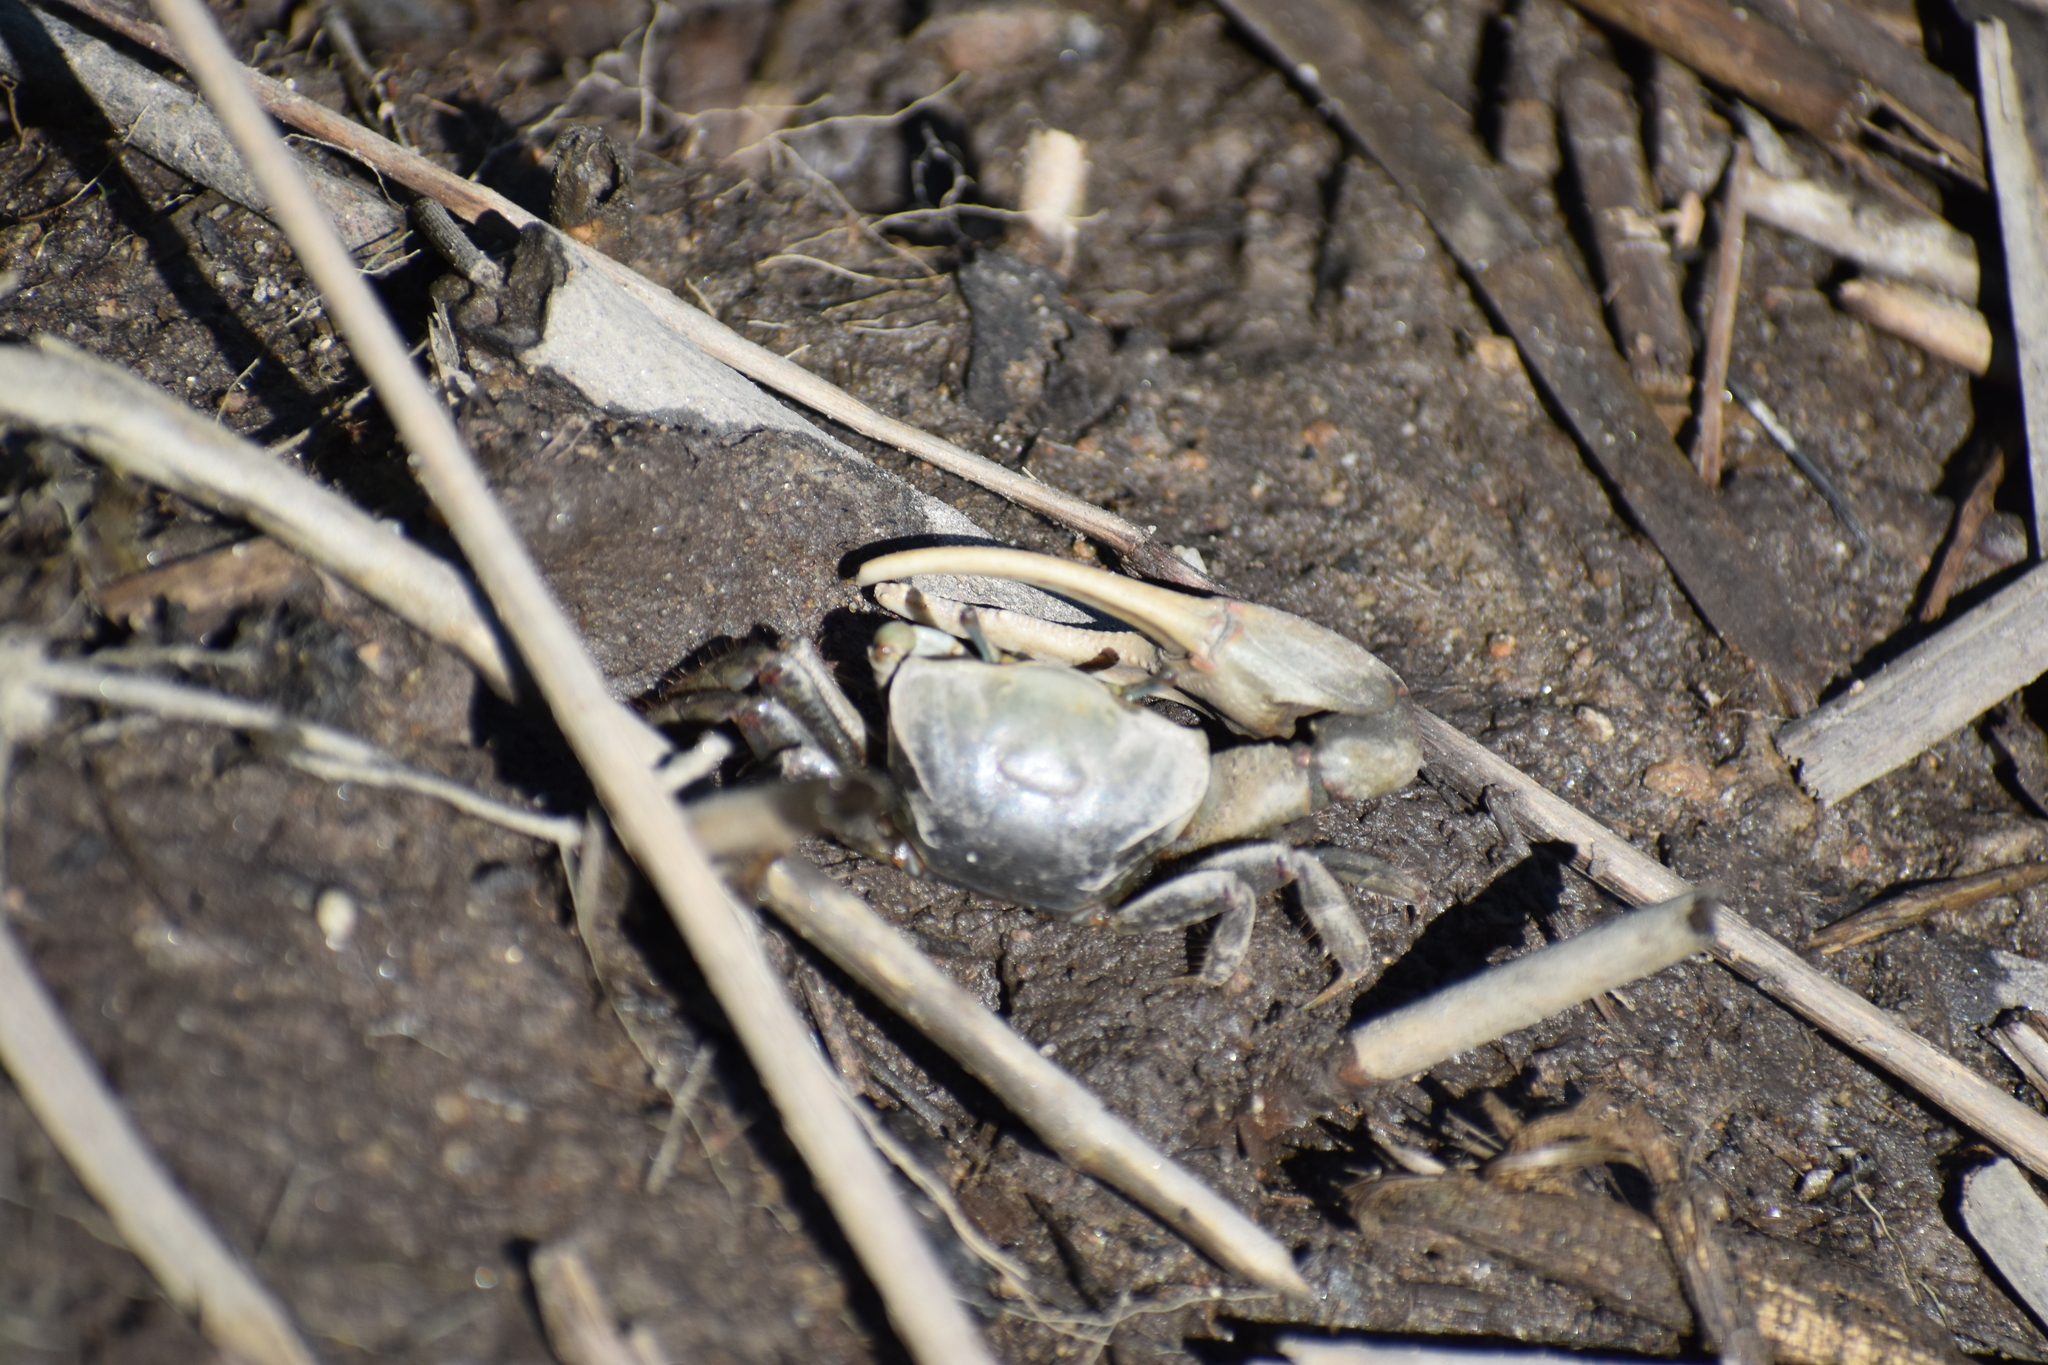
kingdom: Animalia
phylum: Arthropoda
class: Malacostraca
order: Decapoda
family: Ocypodidae
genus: Minuca
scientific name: Minuca minax
